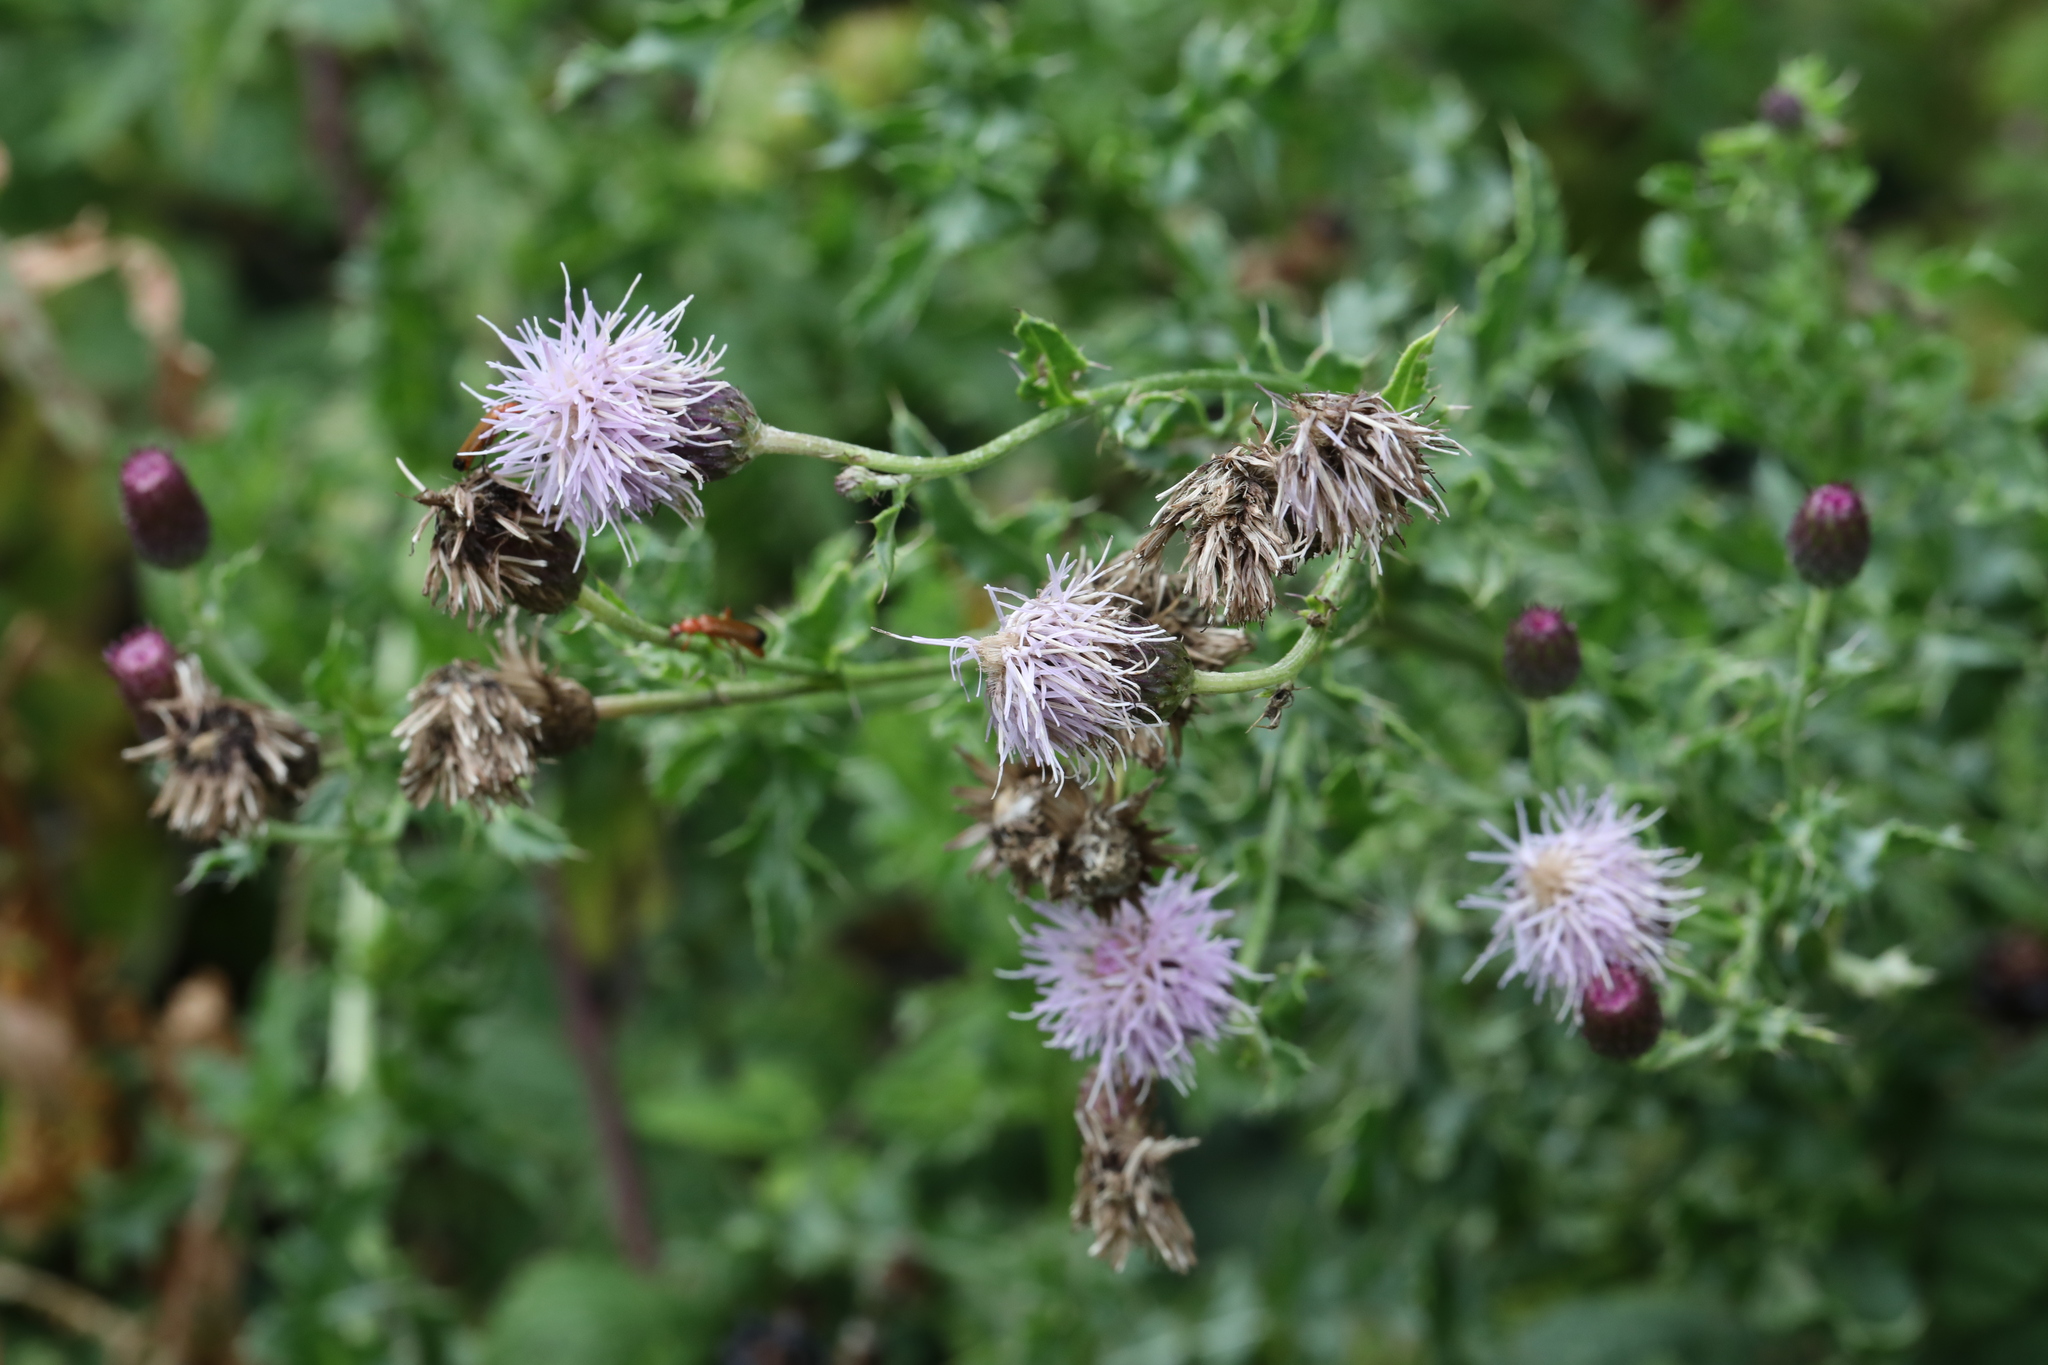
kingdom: Plantae
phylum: Tracheophyta
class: Magnoliopsida
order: Asterales
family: Asteraceae
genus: Cirsium
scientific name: Cirsium arvense
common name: Creeping thistle
